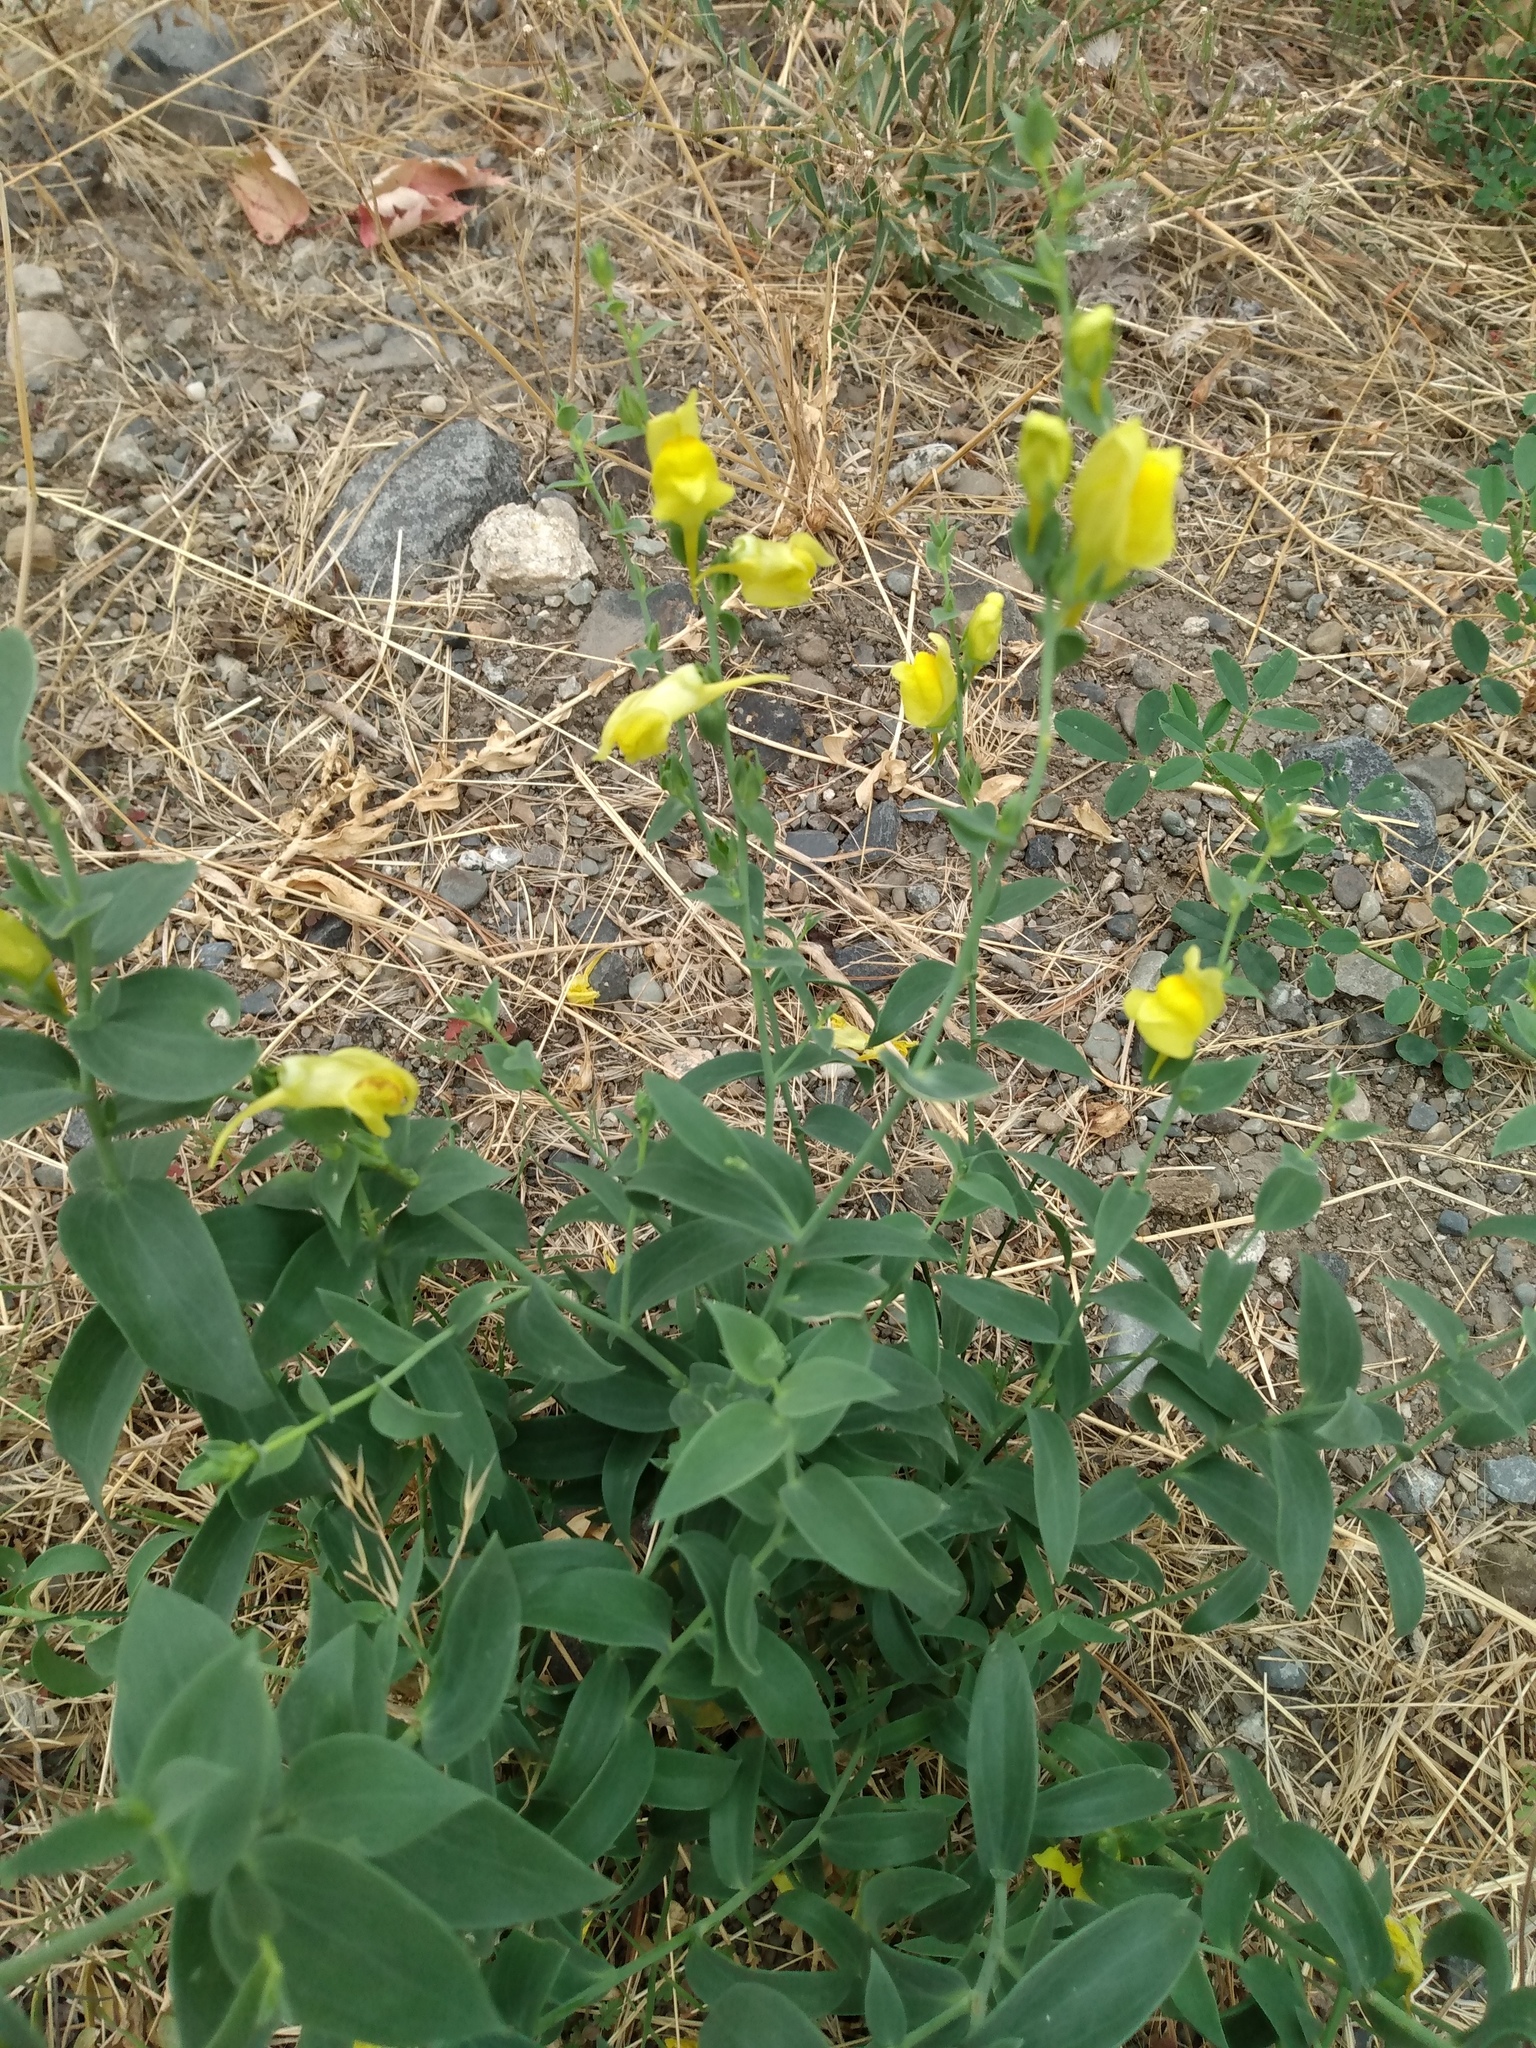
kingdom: Plantae
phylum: Tracheophyta
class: Magnoliopsida
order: Lamiales
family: Plantaginaceae
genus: Linaria
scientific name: Linaria dalmatica
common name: Dalmatian toadflax
